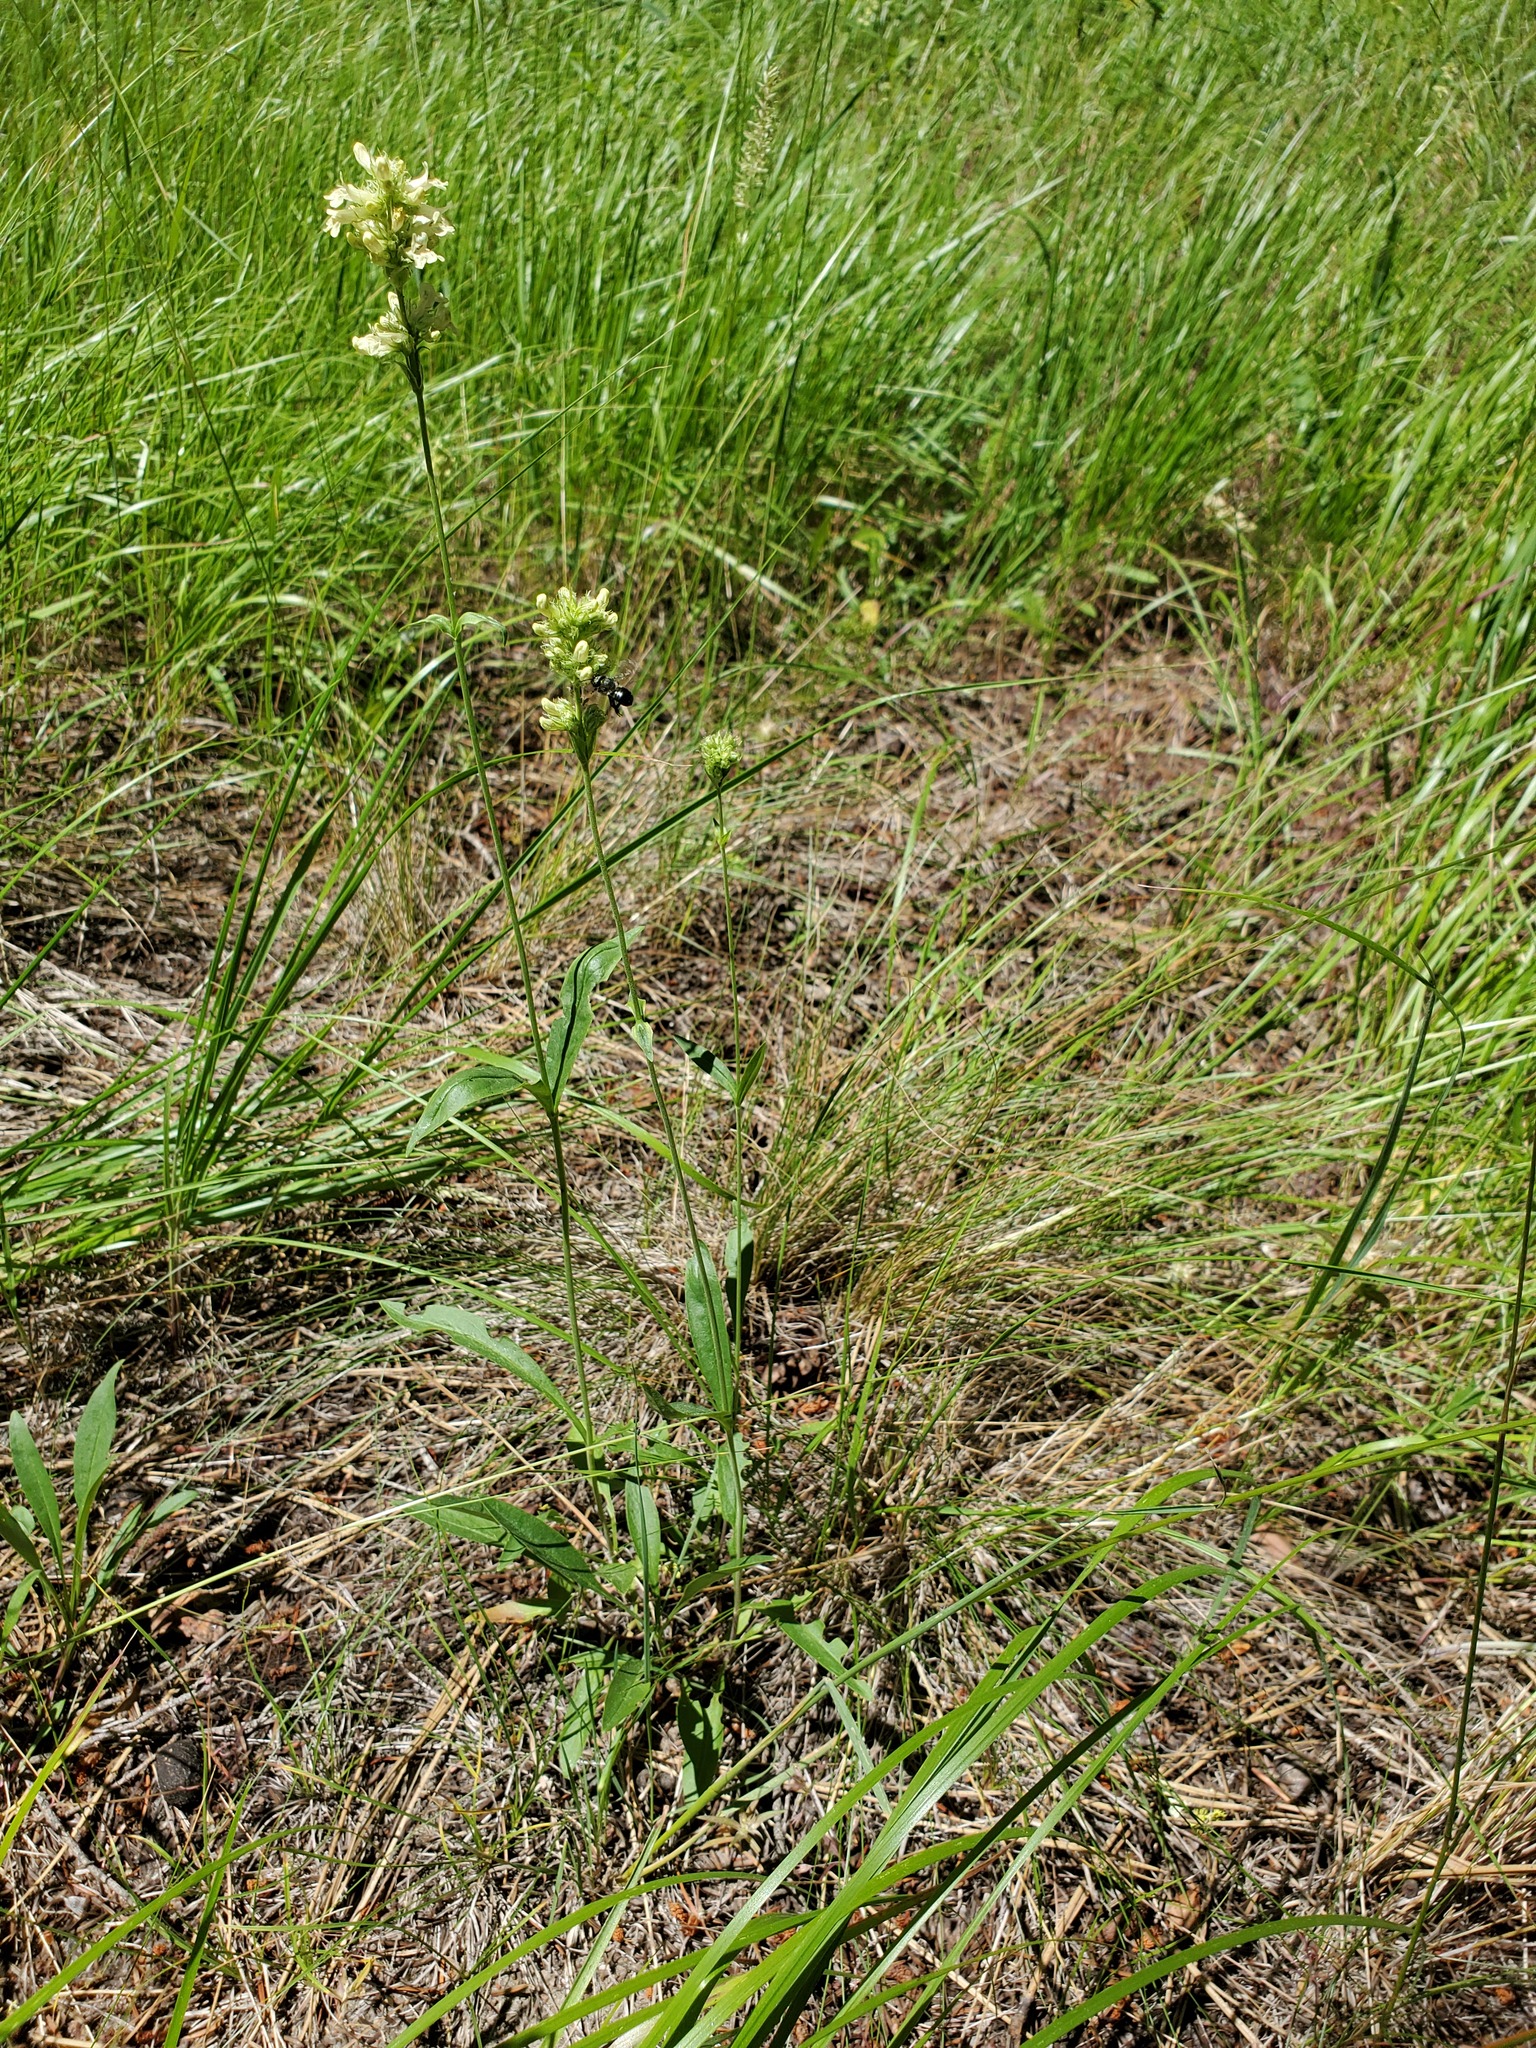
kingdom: Plantae
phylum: Tracheophyta
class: Magnoliopsida
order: Lamiales
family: Plantaginaceae
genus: Penstemon
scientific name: Penstemon confertus
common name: Lesser yellow beardtongue
